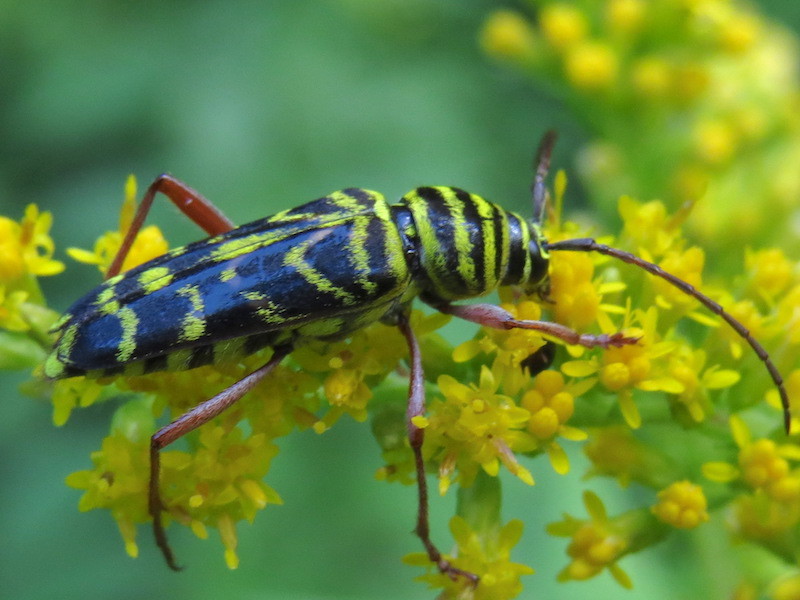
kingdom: Animalia
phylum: Arthropoda
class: Insecta
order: Coleoptera
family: Cerambycidae
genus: Megacyllene
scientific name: Megacyllene robiniae
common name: Locust borer
